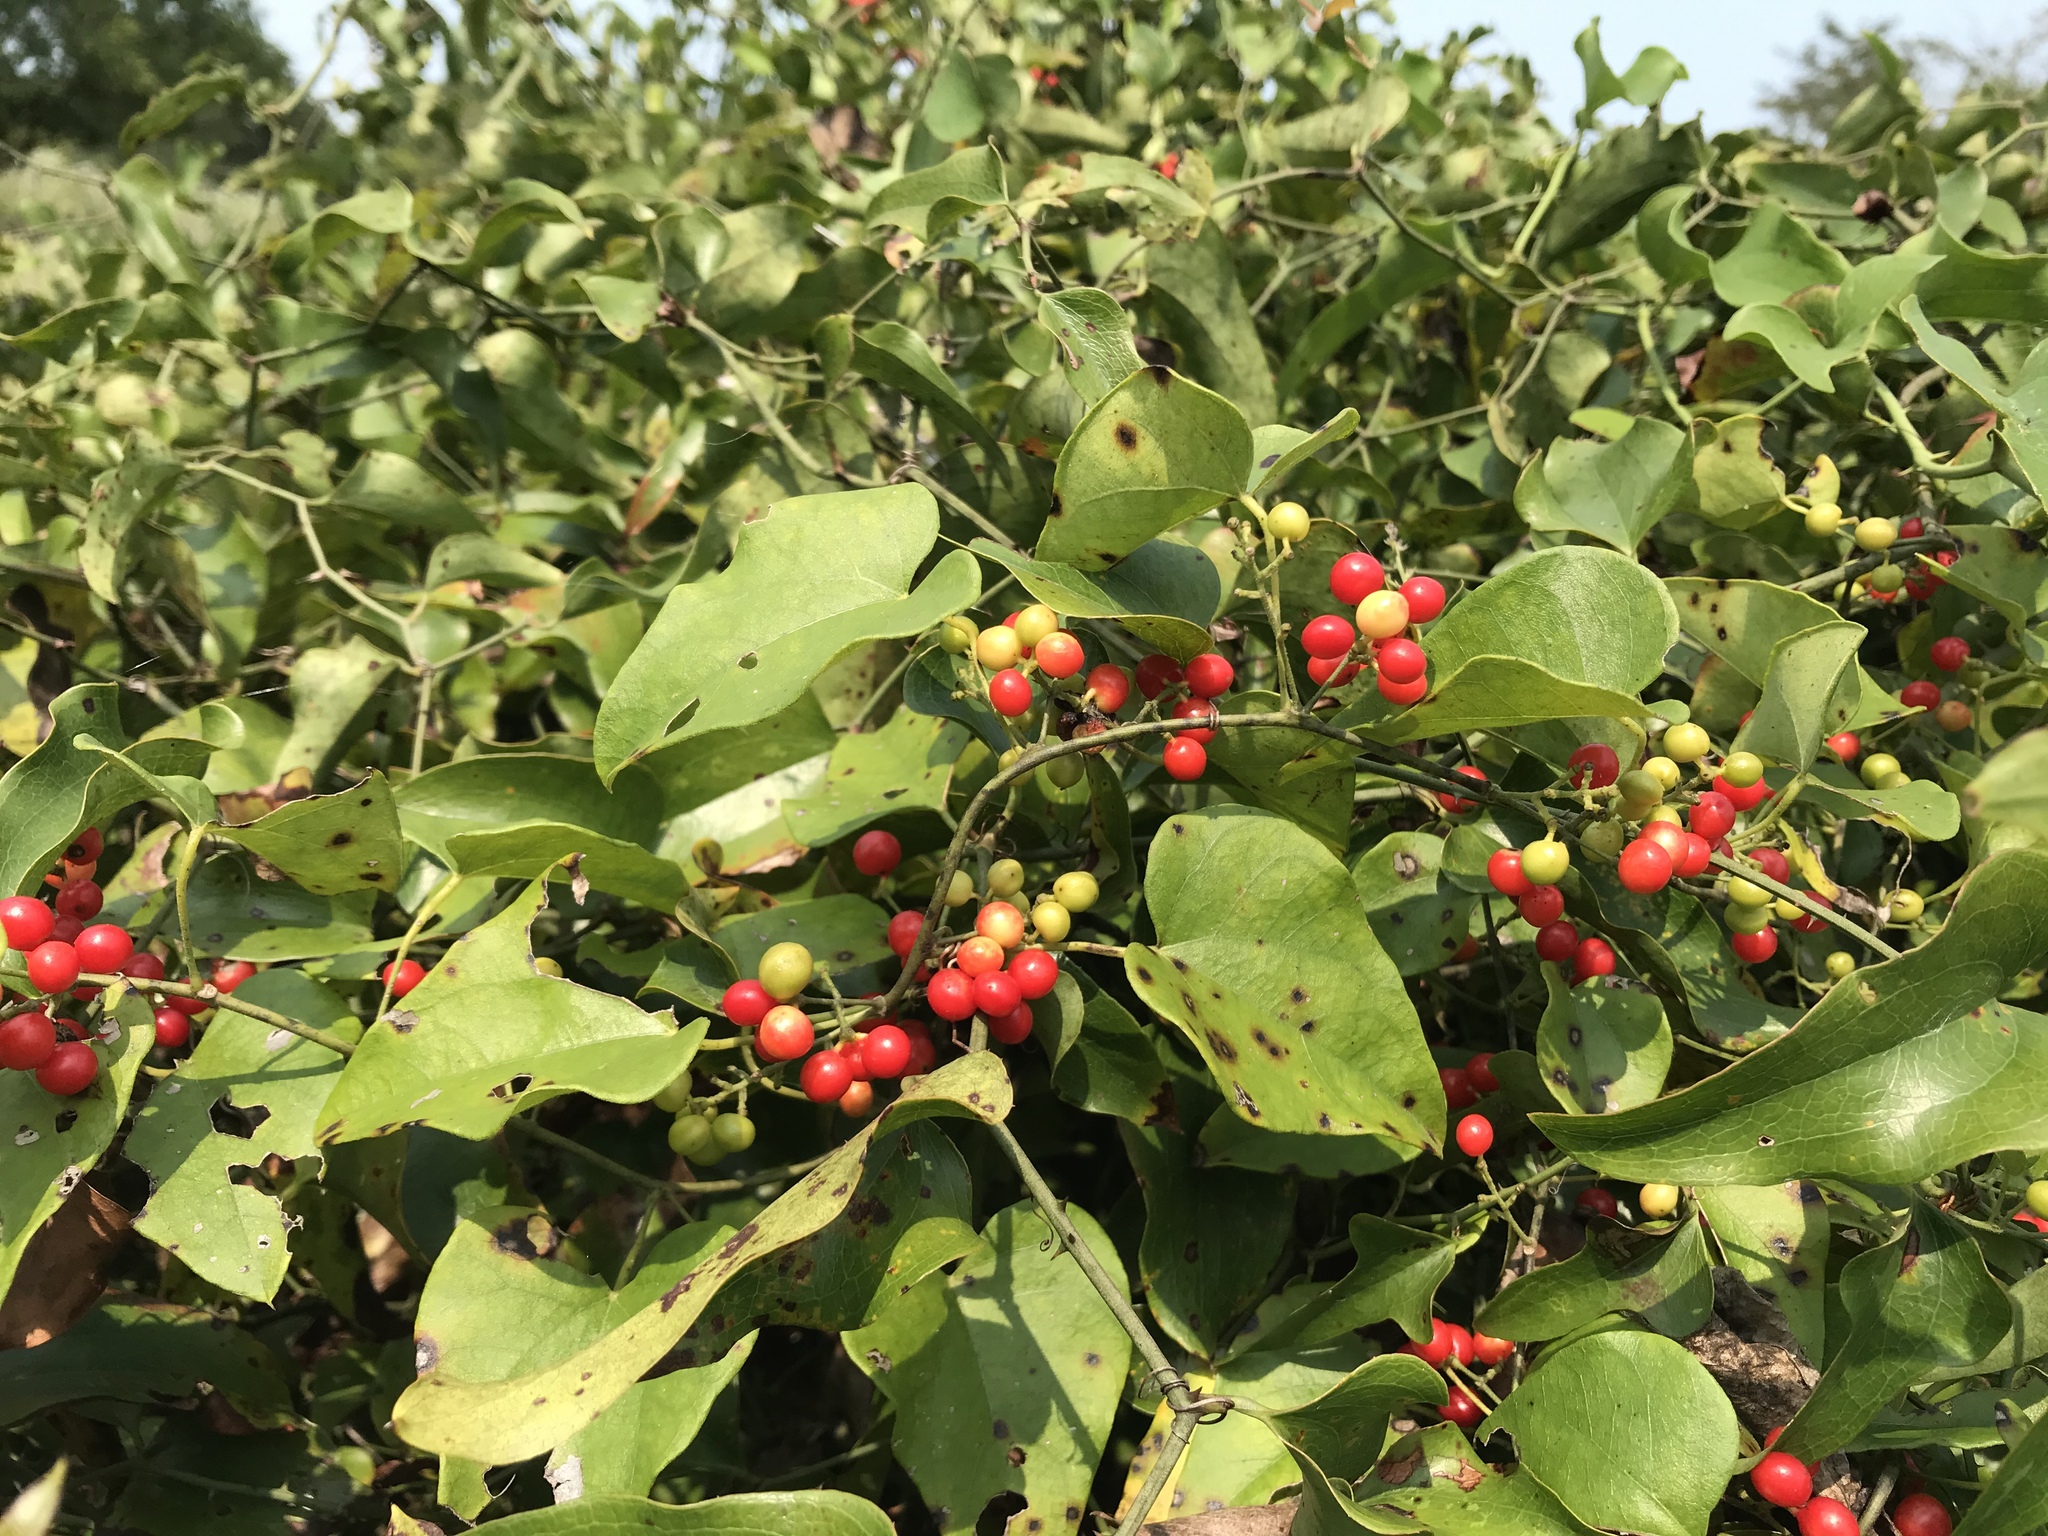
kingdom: Plantae
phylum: Tracheophyta
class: Magnoliopsida
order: Ranunculales
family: Menispermaceae
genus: Cocculus
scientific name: Cocculus carolinus
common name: Carolina moonseed
